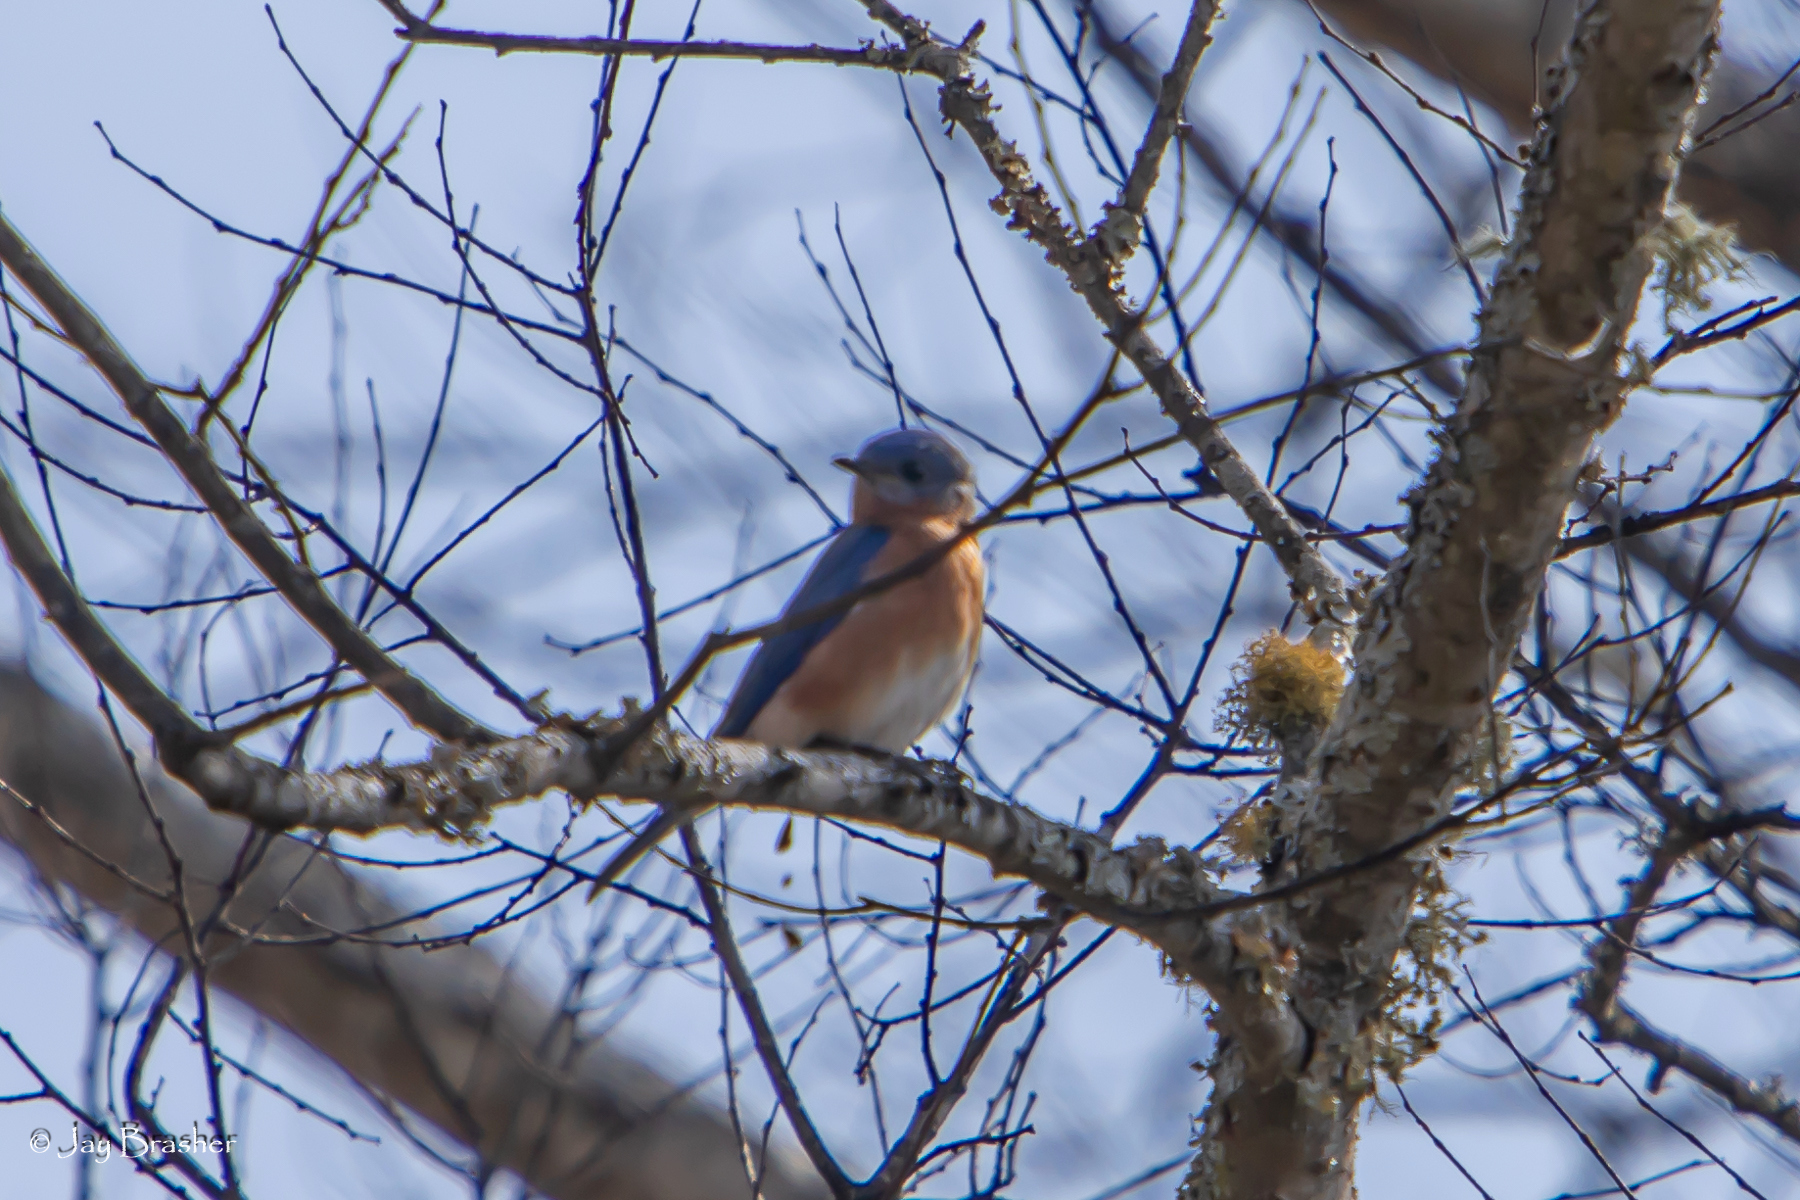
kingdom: Animalia
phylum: Chordata
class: Aves
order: Passeriformes
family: Turdidae
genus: Sialia
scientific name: Sialia sialis
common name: Eastern bluebird
